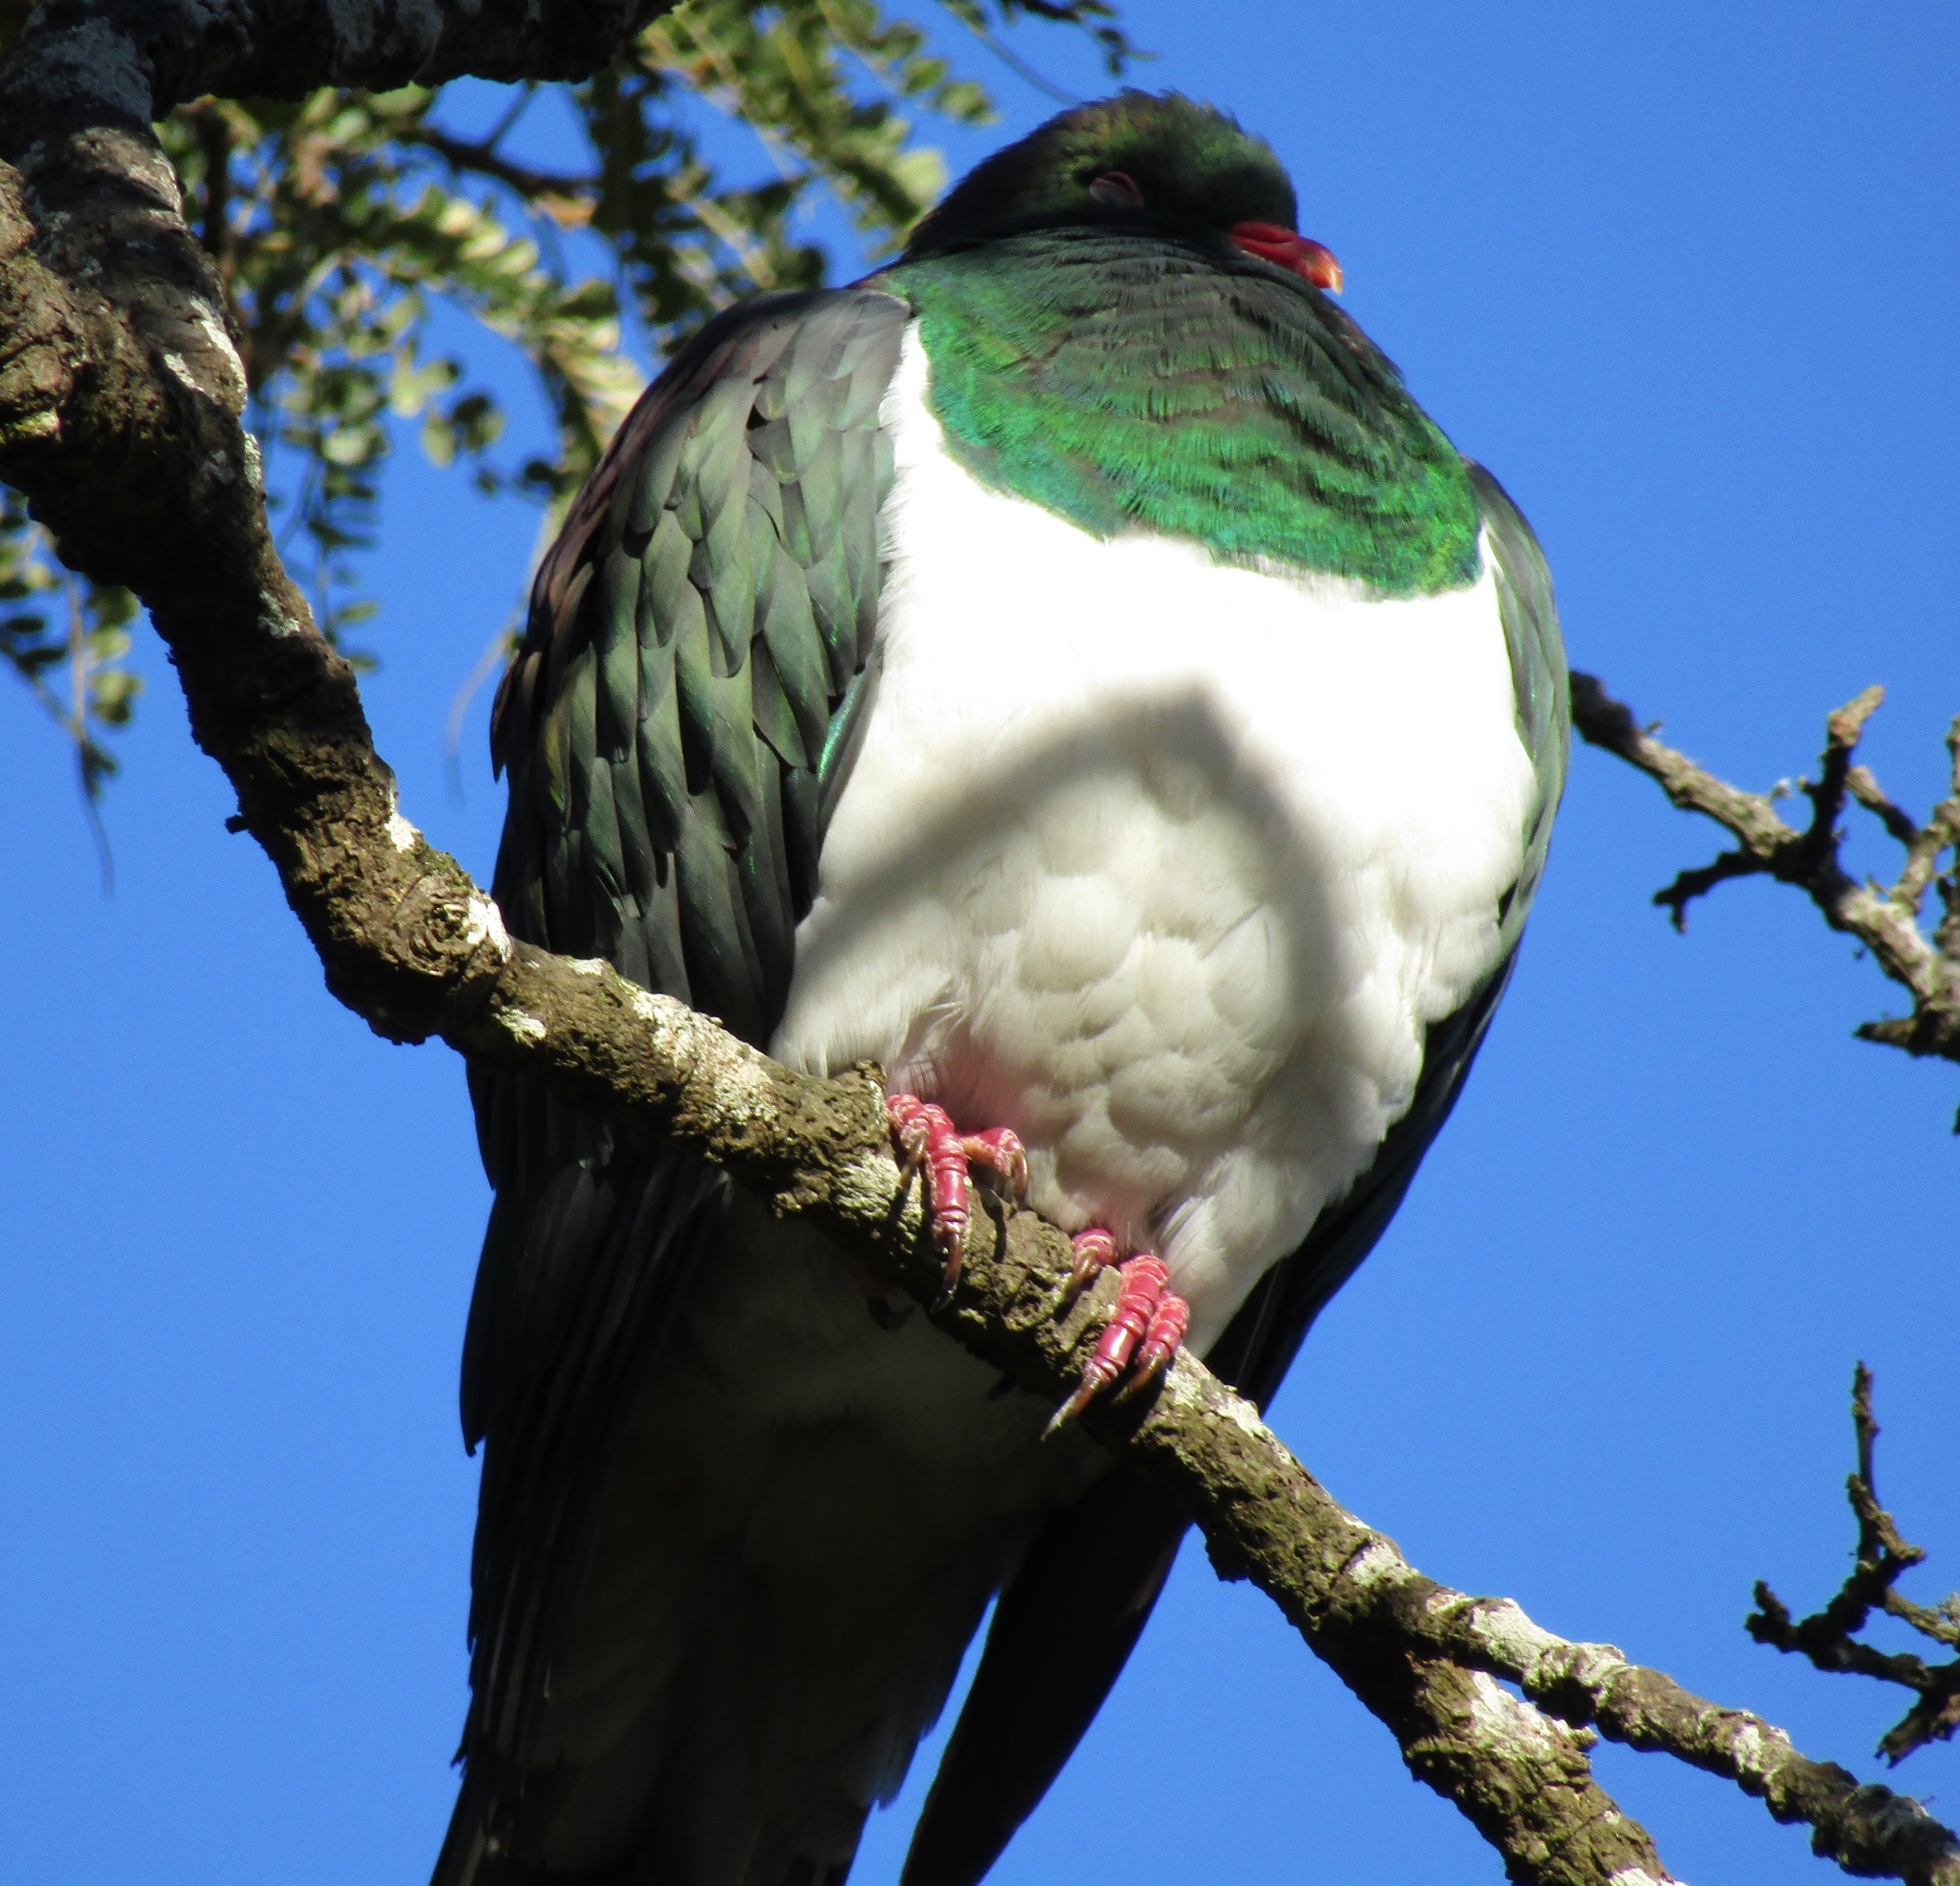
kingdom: Animalia
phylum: Chordata
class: Aves
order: Columbiformes
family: Columbidae
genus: Hemiphaga
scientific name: Hemiphaga novaeseelandiae
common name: New zealand pigeon
